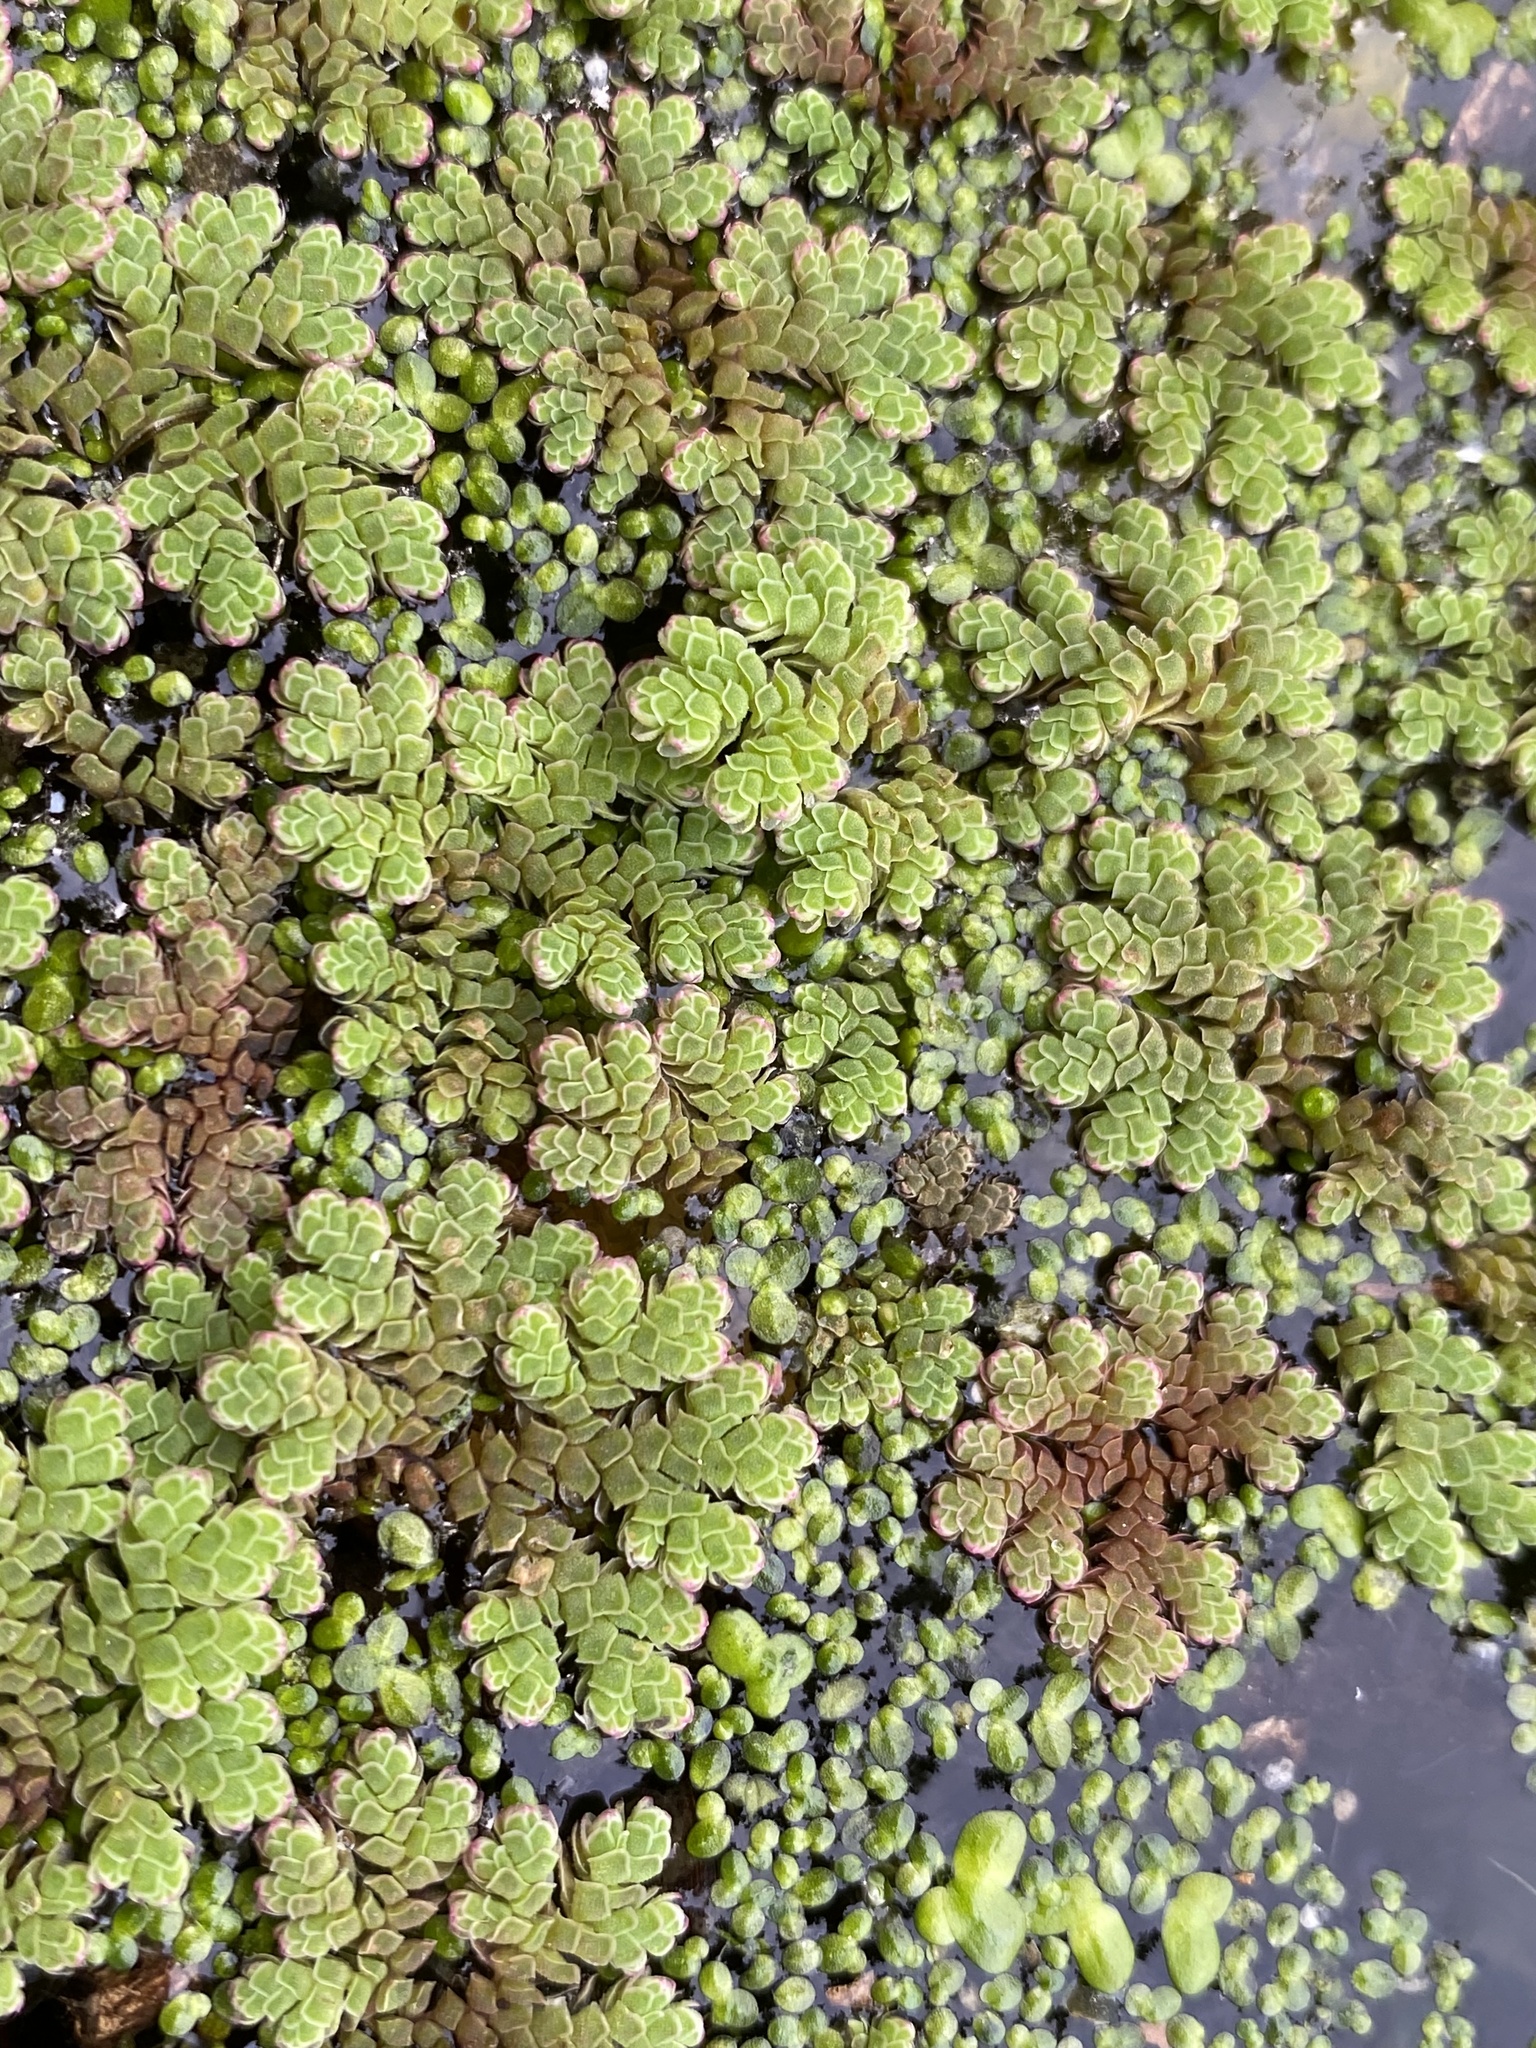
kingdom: Plantae
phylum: Tracheophyta
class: Polypodiopsida
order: Salviniales
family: Salviniaceae
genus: Azolla
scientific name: Azolla rubra
